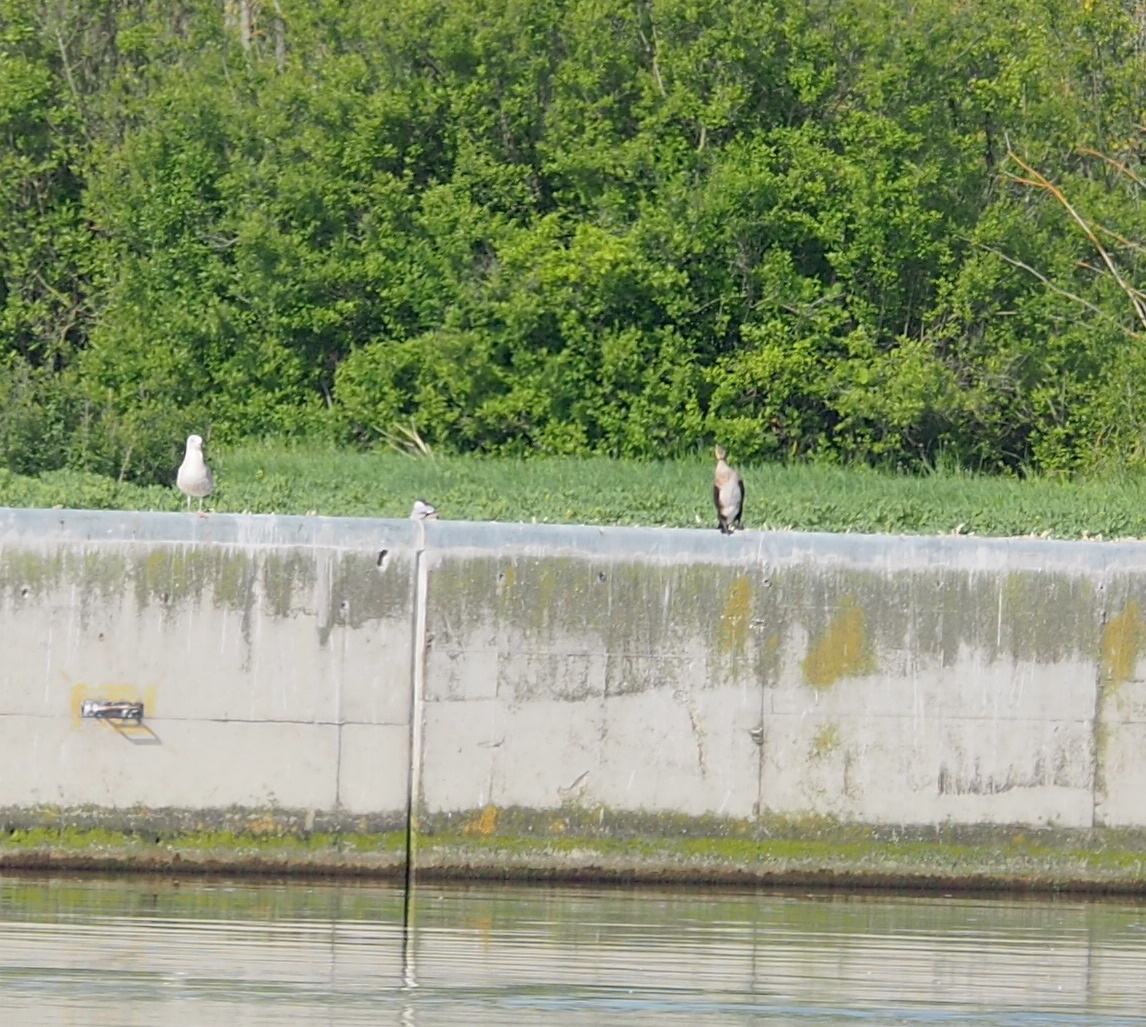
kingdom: Animalia
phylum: Chordata
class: Aves
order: Suliformes
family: Phalacrocoracidae
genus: Phalacrocorax
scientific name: Phalacrocorax carbo
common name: Great cormorant
